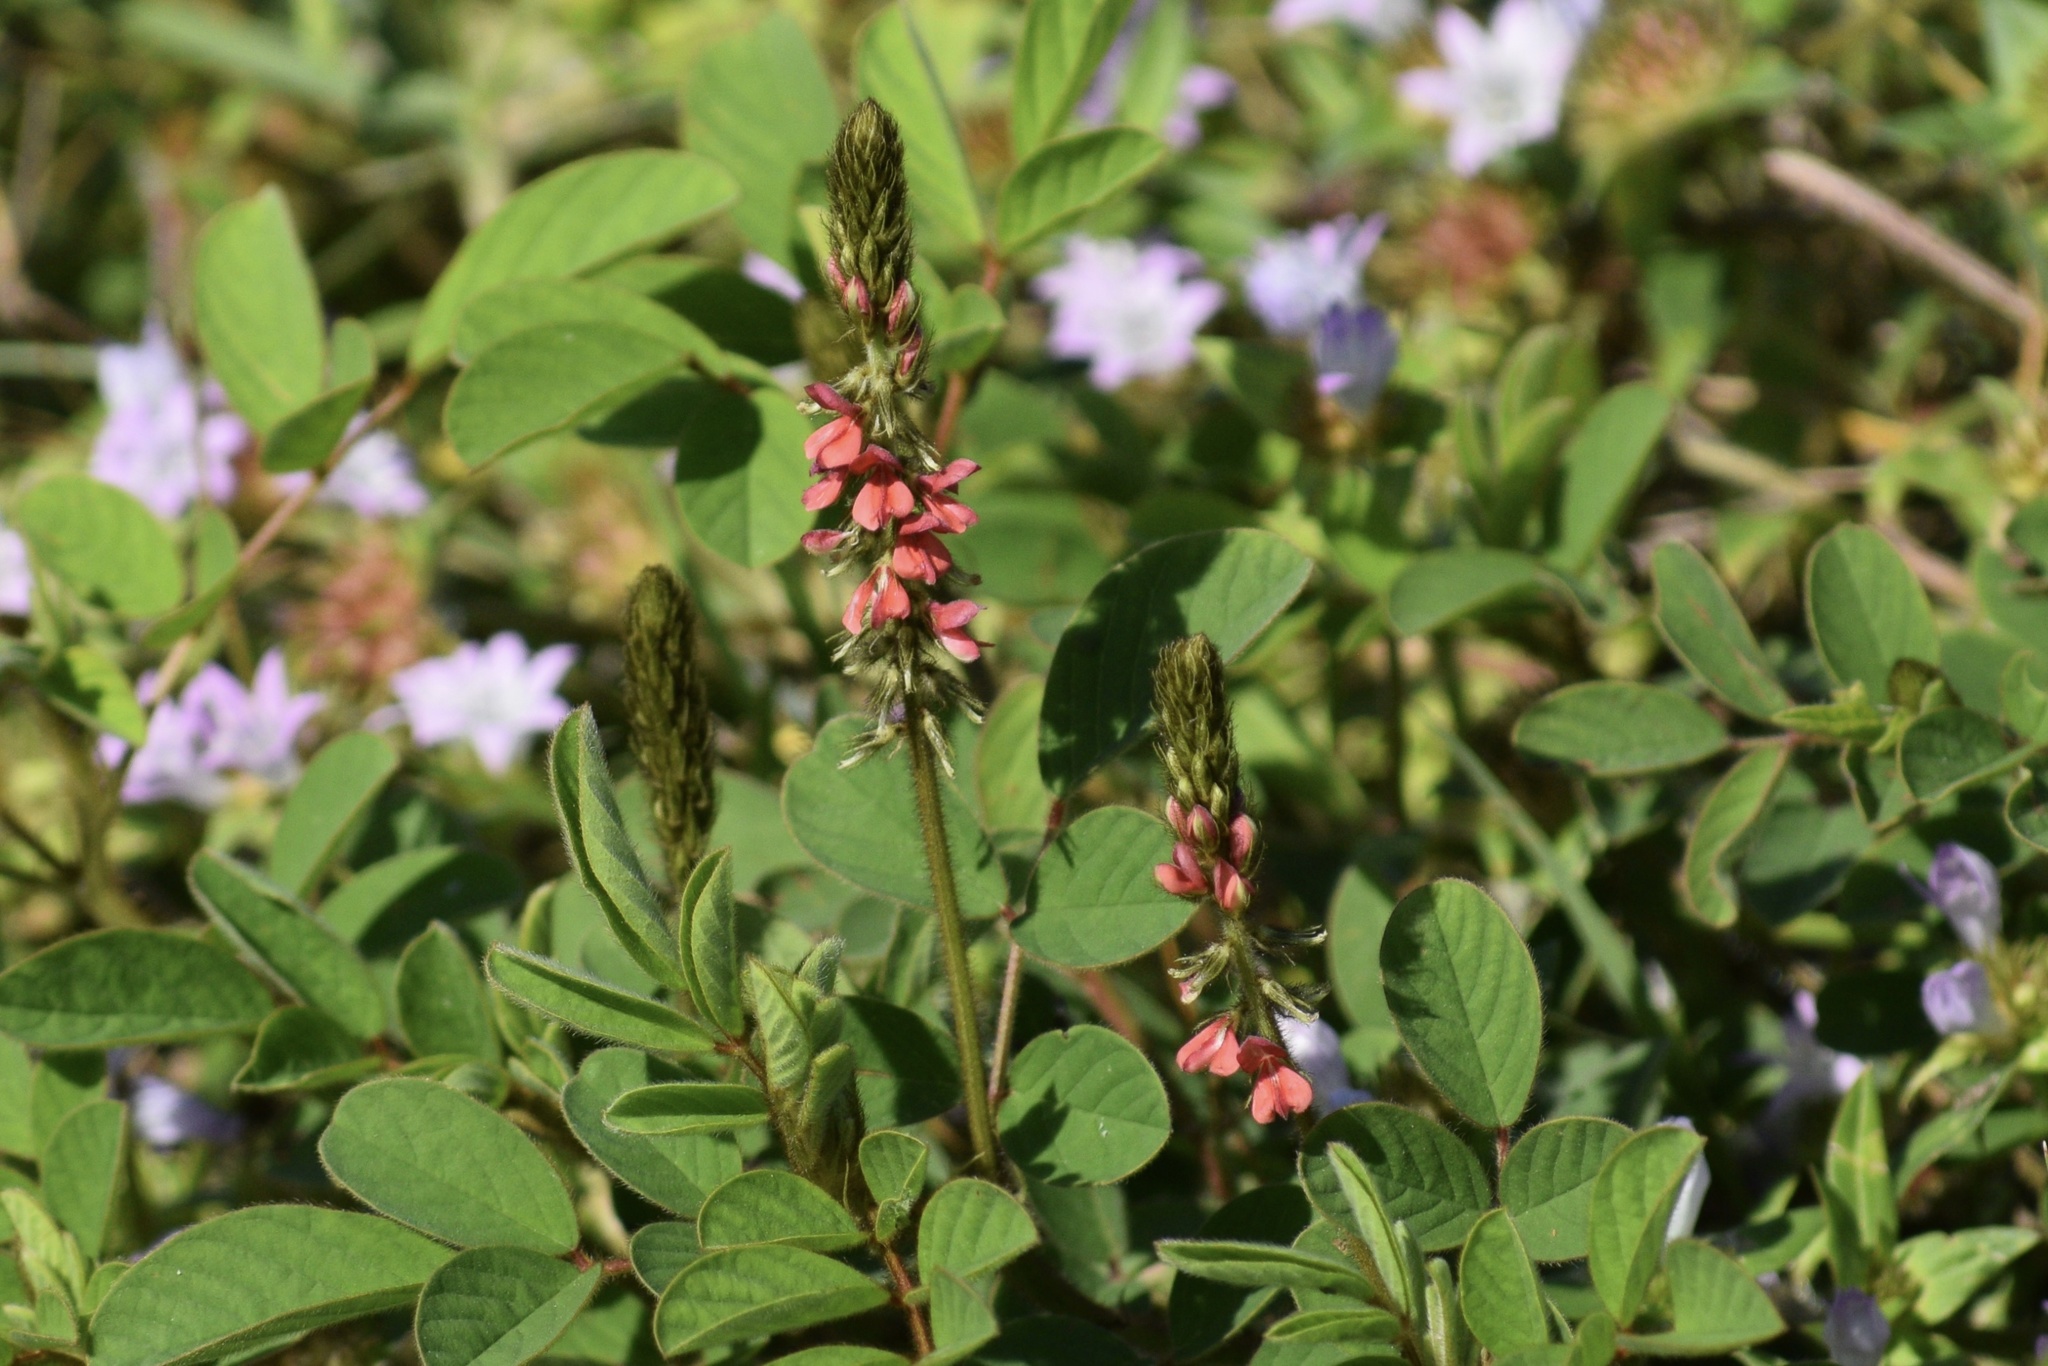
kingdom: Plantae
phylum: Tracheophyta
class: Magnoliopsida
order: Fabales
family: Fabaceae
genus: Indigofera
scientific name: Indigofera hirsuta
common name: Hairy indigo
